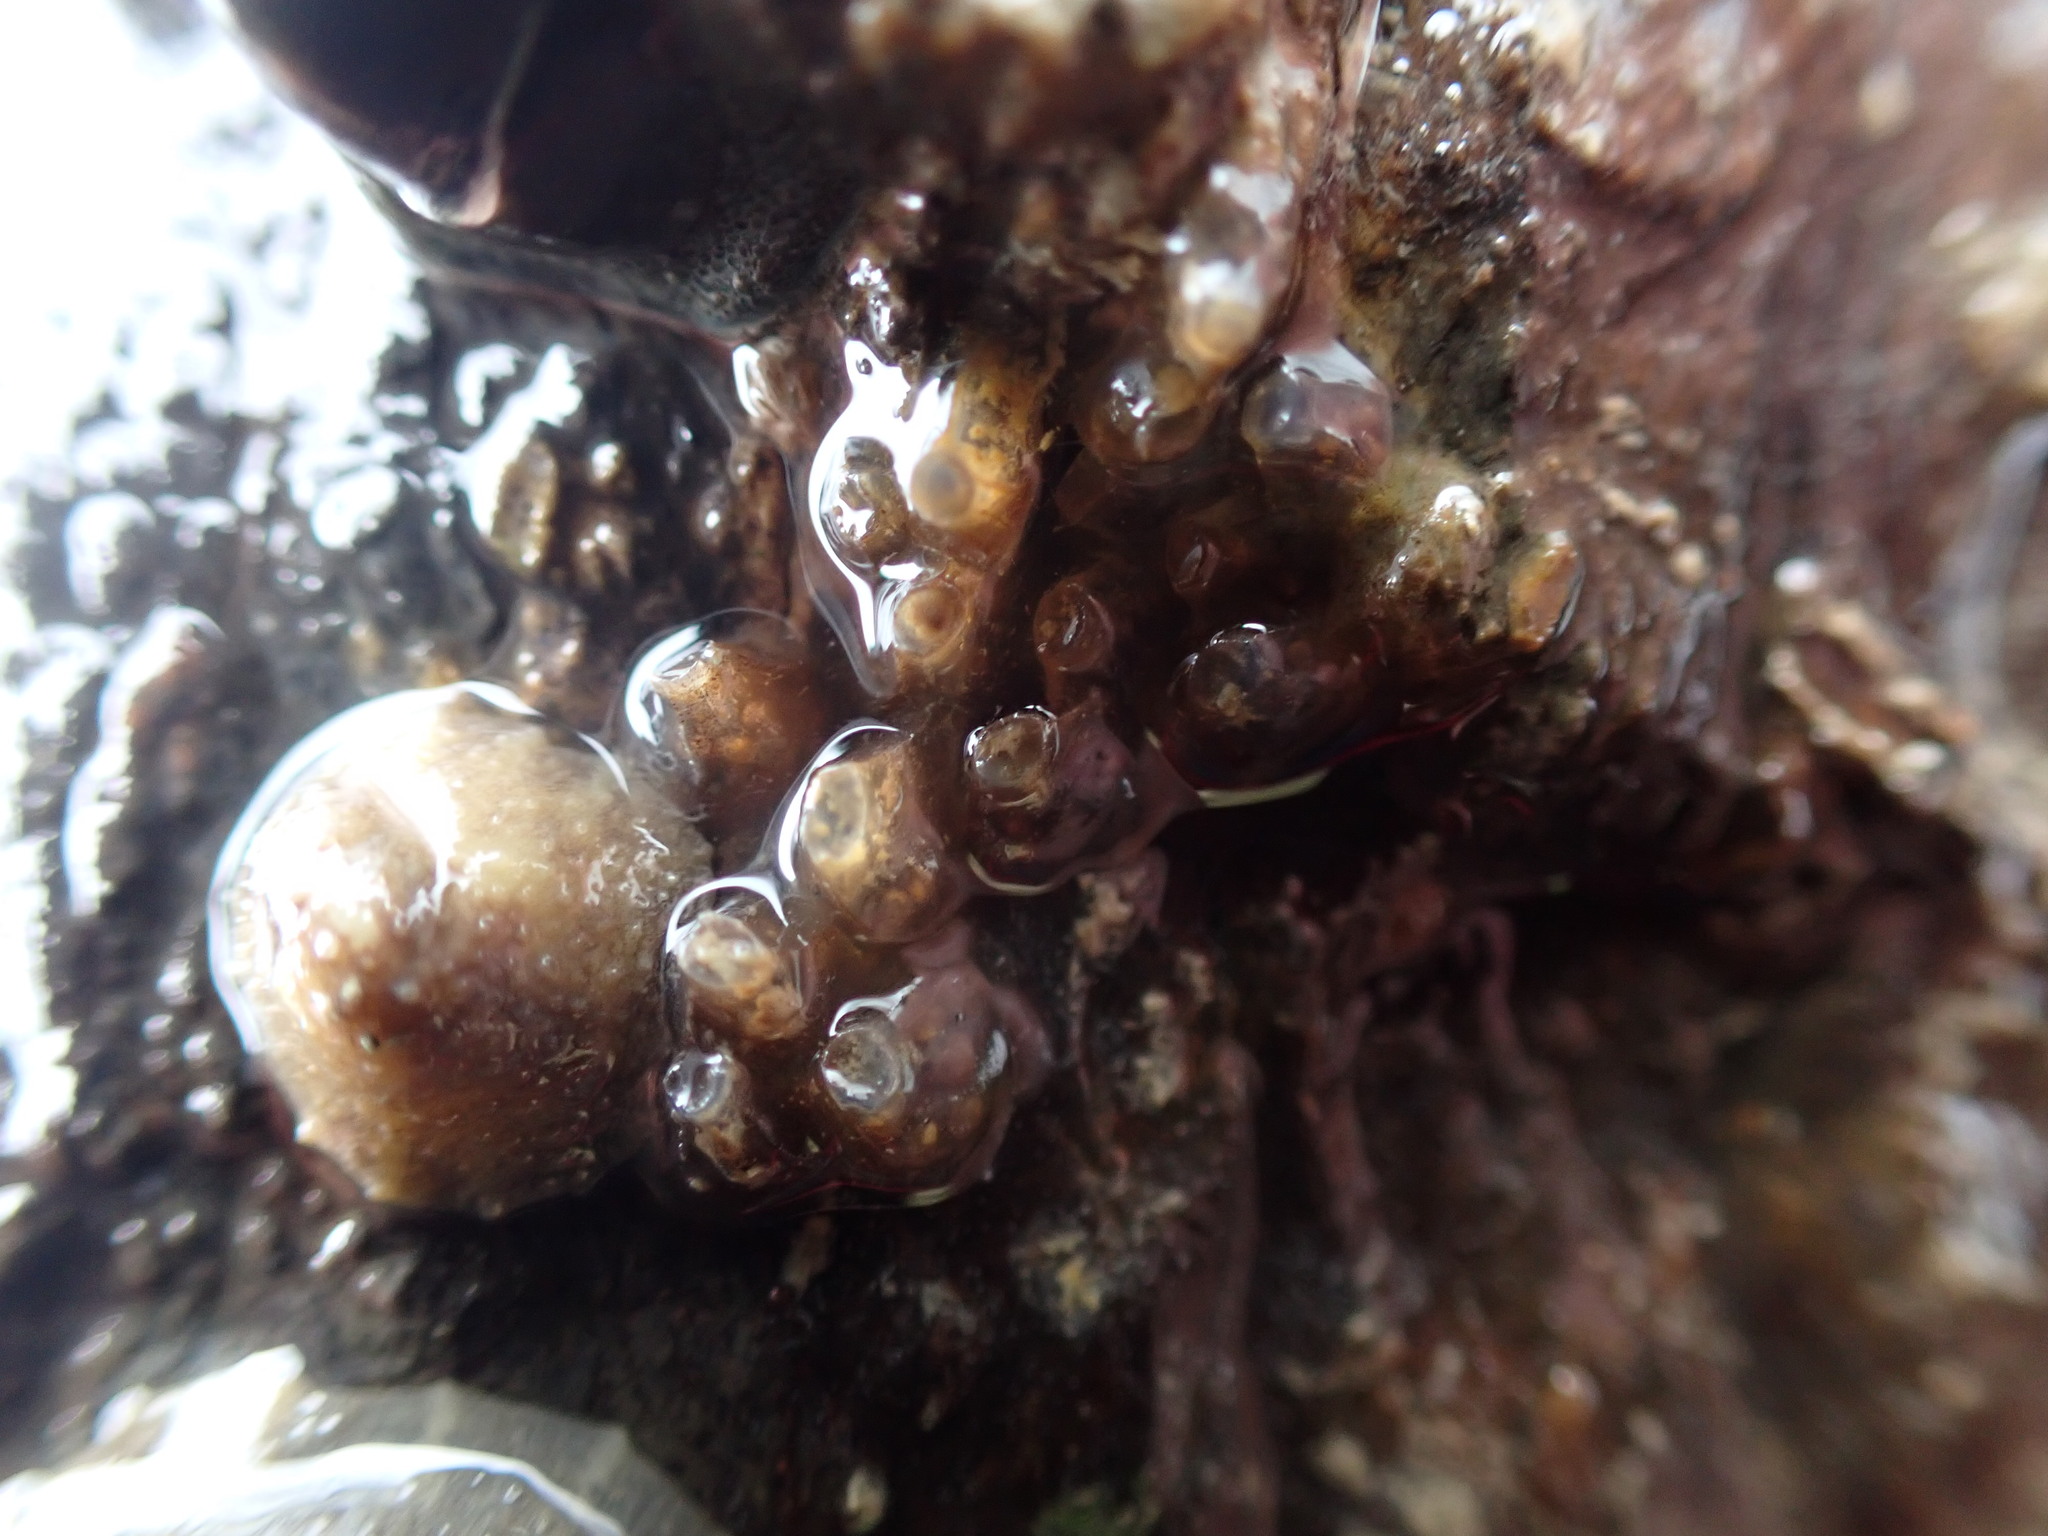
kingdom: Animalia
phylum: Mollusca
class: Gastropoda
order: Neogastropoda
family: Cominellidae
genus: Cominella
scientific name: Cominella glandiformis
